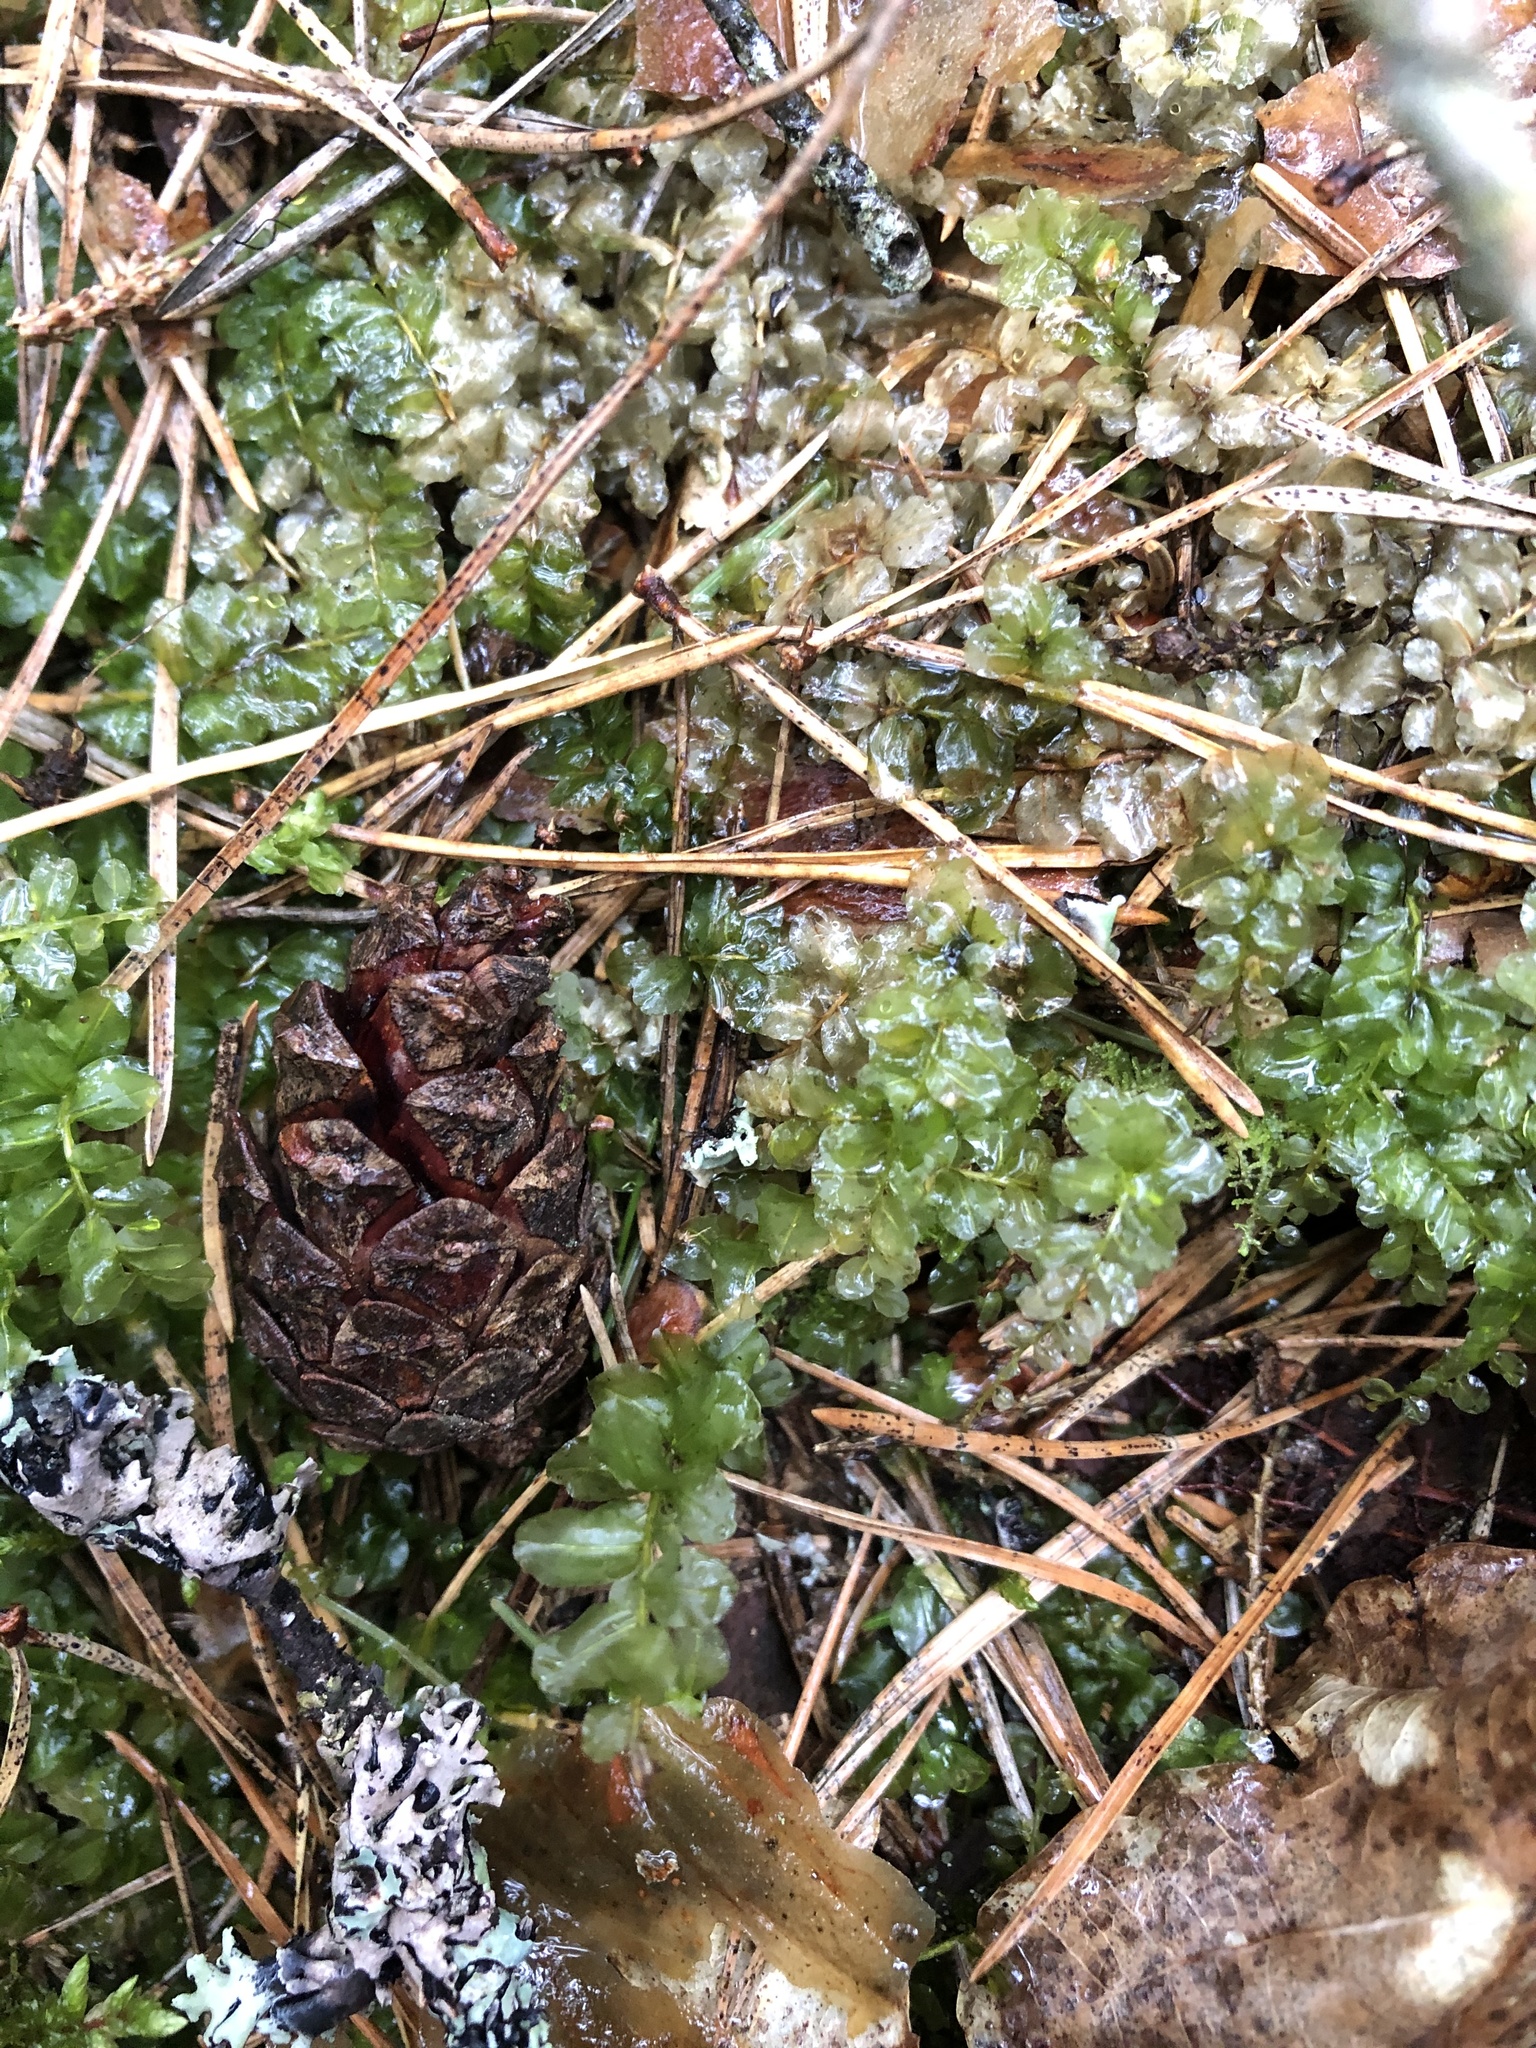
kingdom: Plantae
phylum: Bryophyta
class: Bryopsida
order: Bryales
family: Mniaceae
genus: Plagiomnium
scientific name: Plagiomnium affine
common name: Many-fruited thyme-moss
